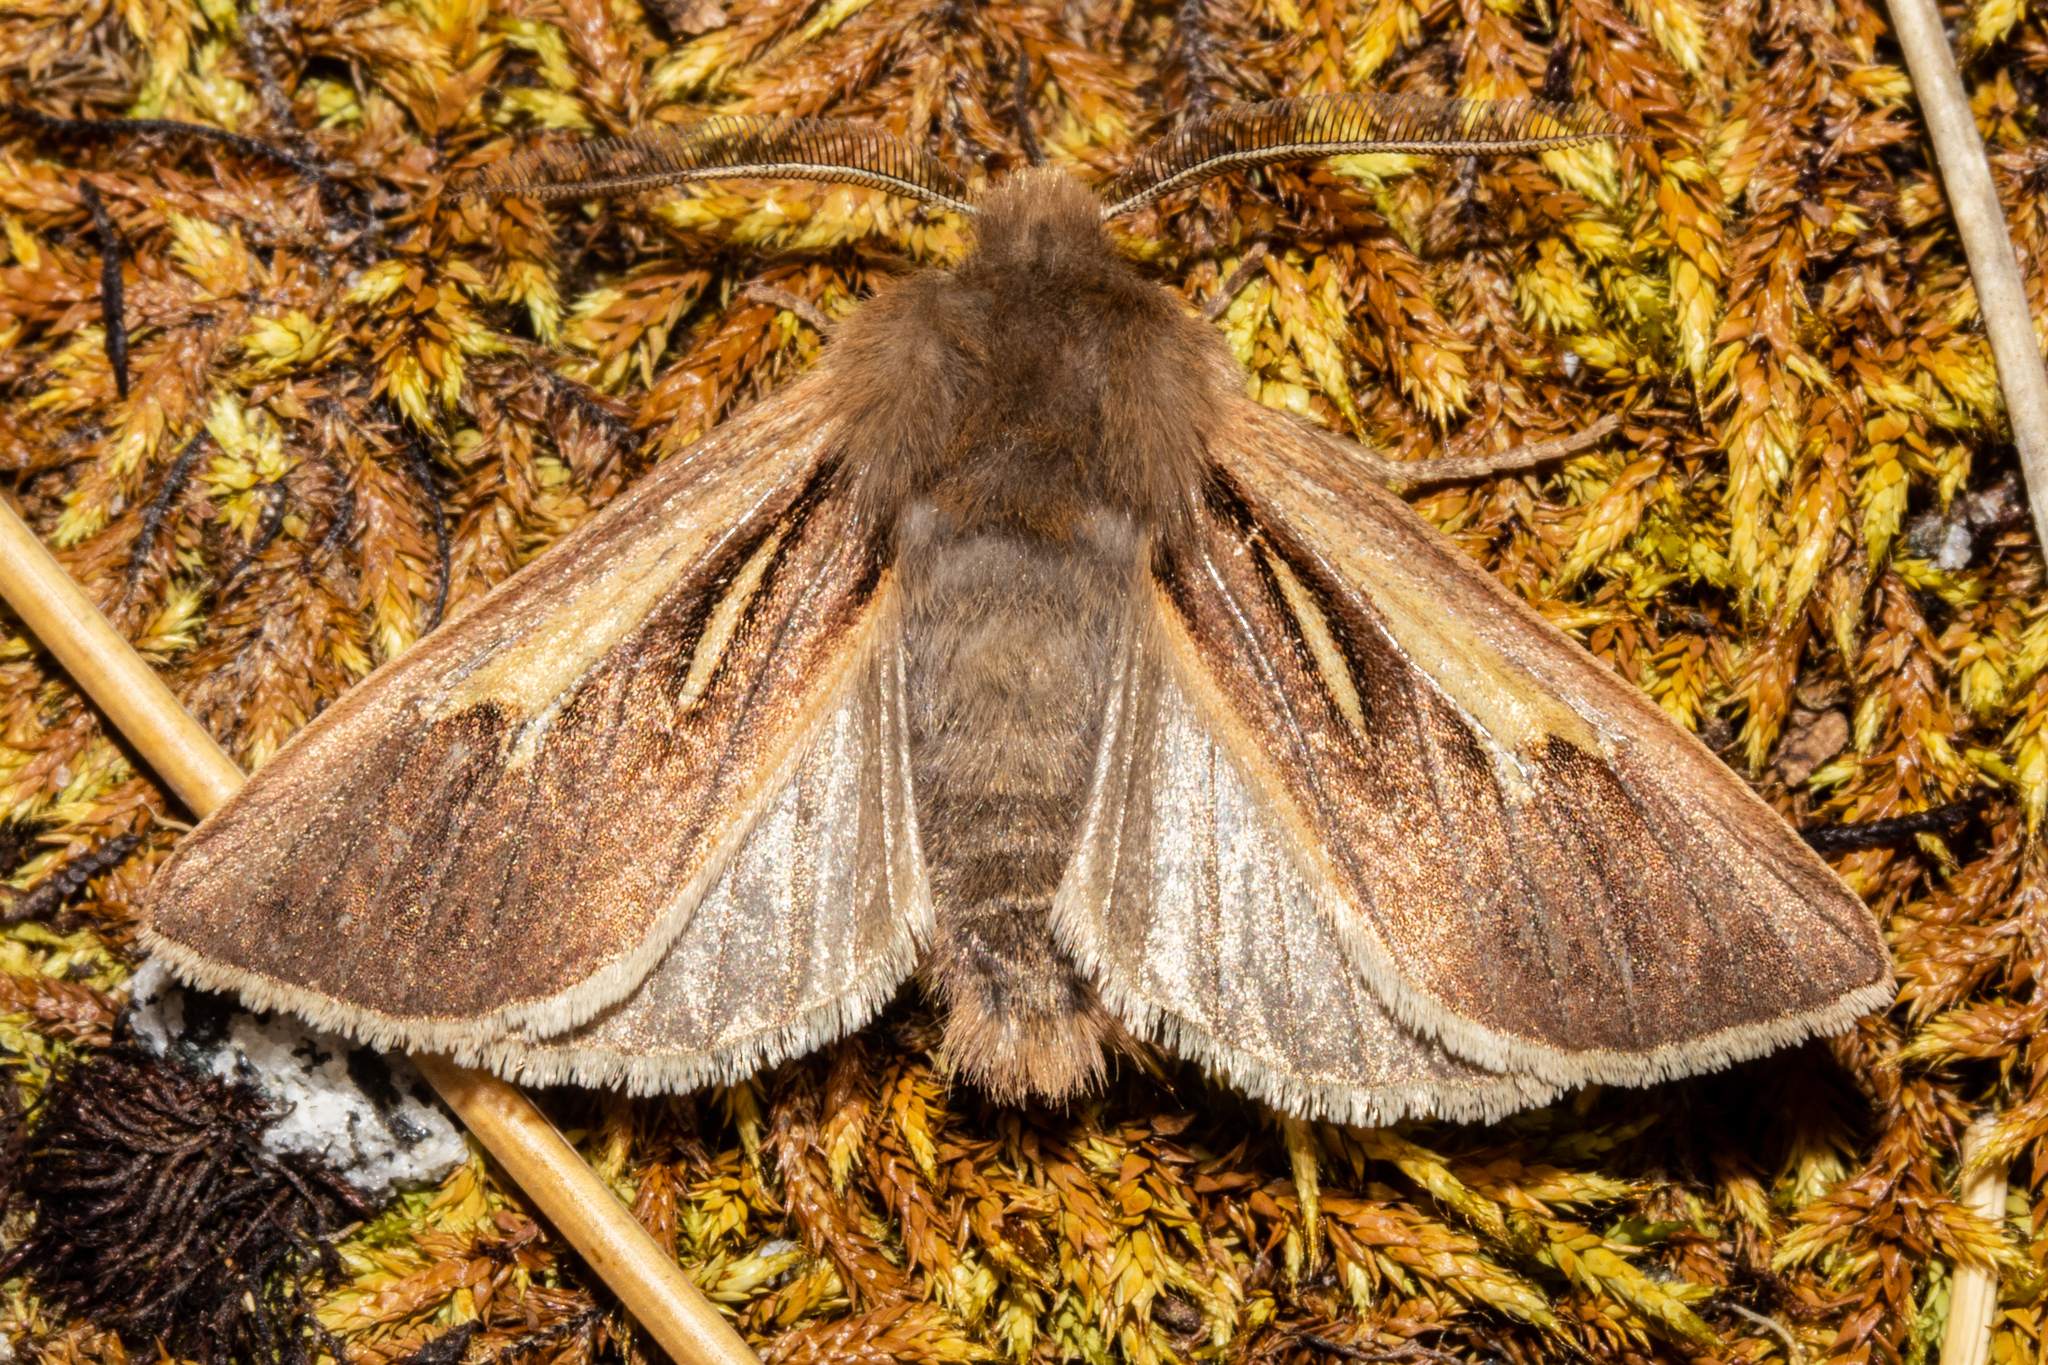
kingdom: Animalia
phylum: Arthropoda
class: Insecta
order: Lepidoptera
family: Noctuidae
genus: Ichneutica
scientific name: Ichneutica dione
